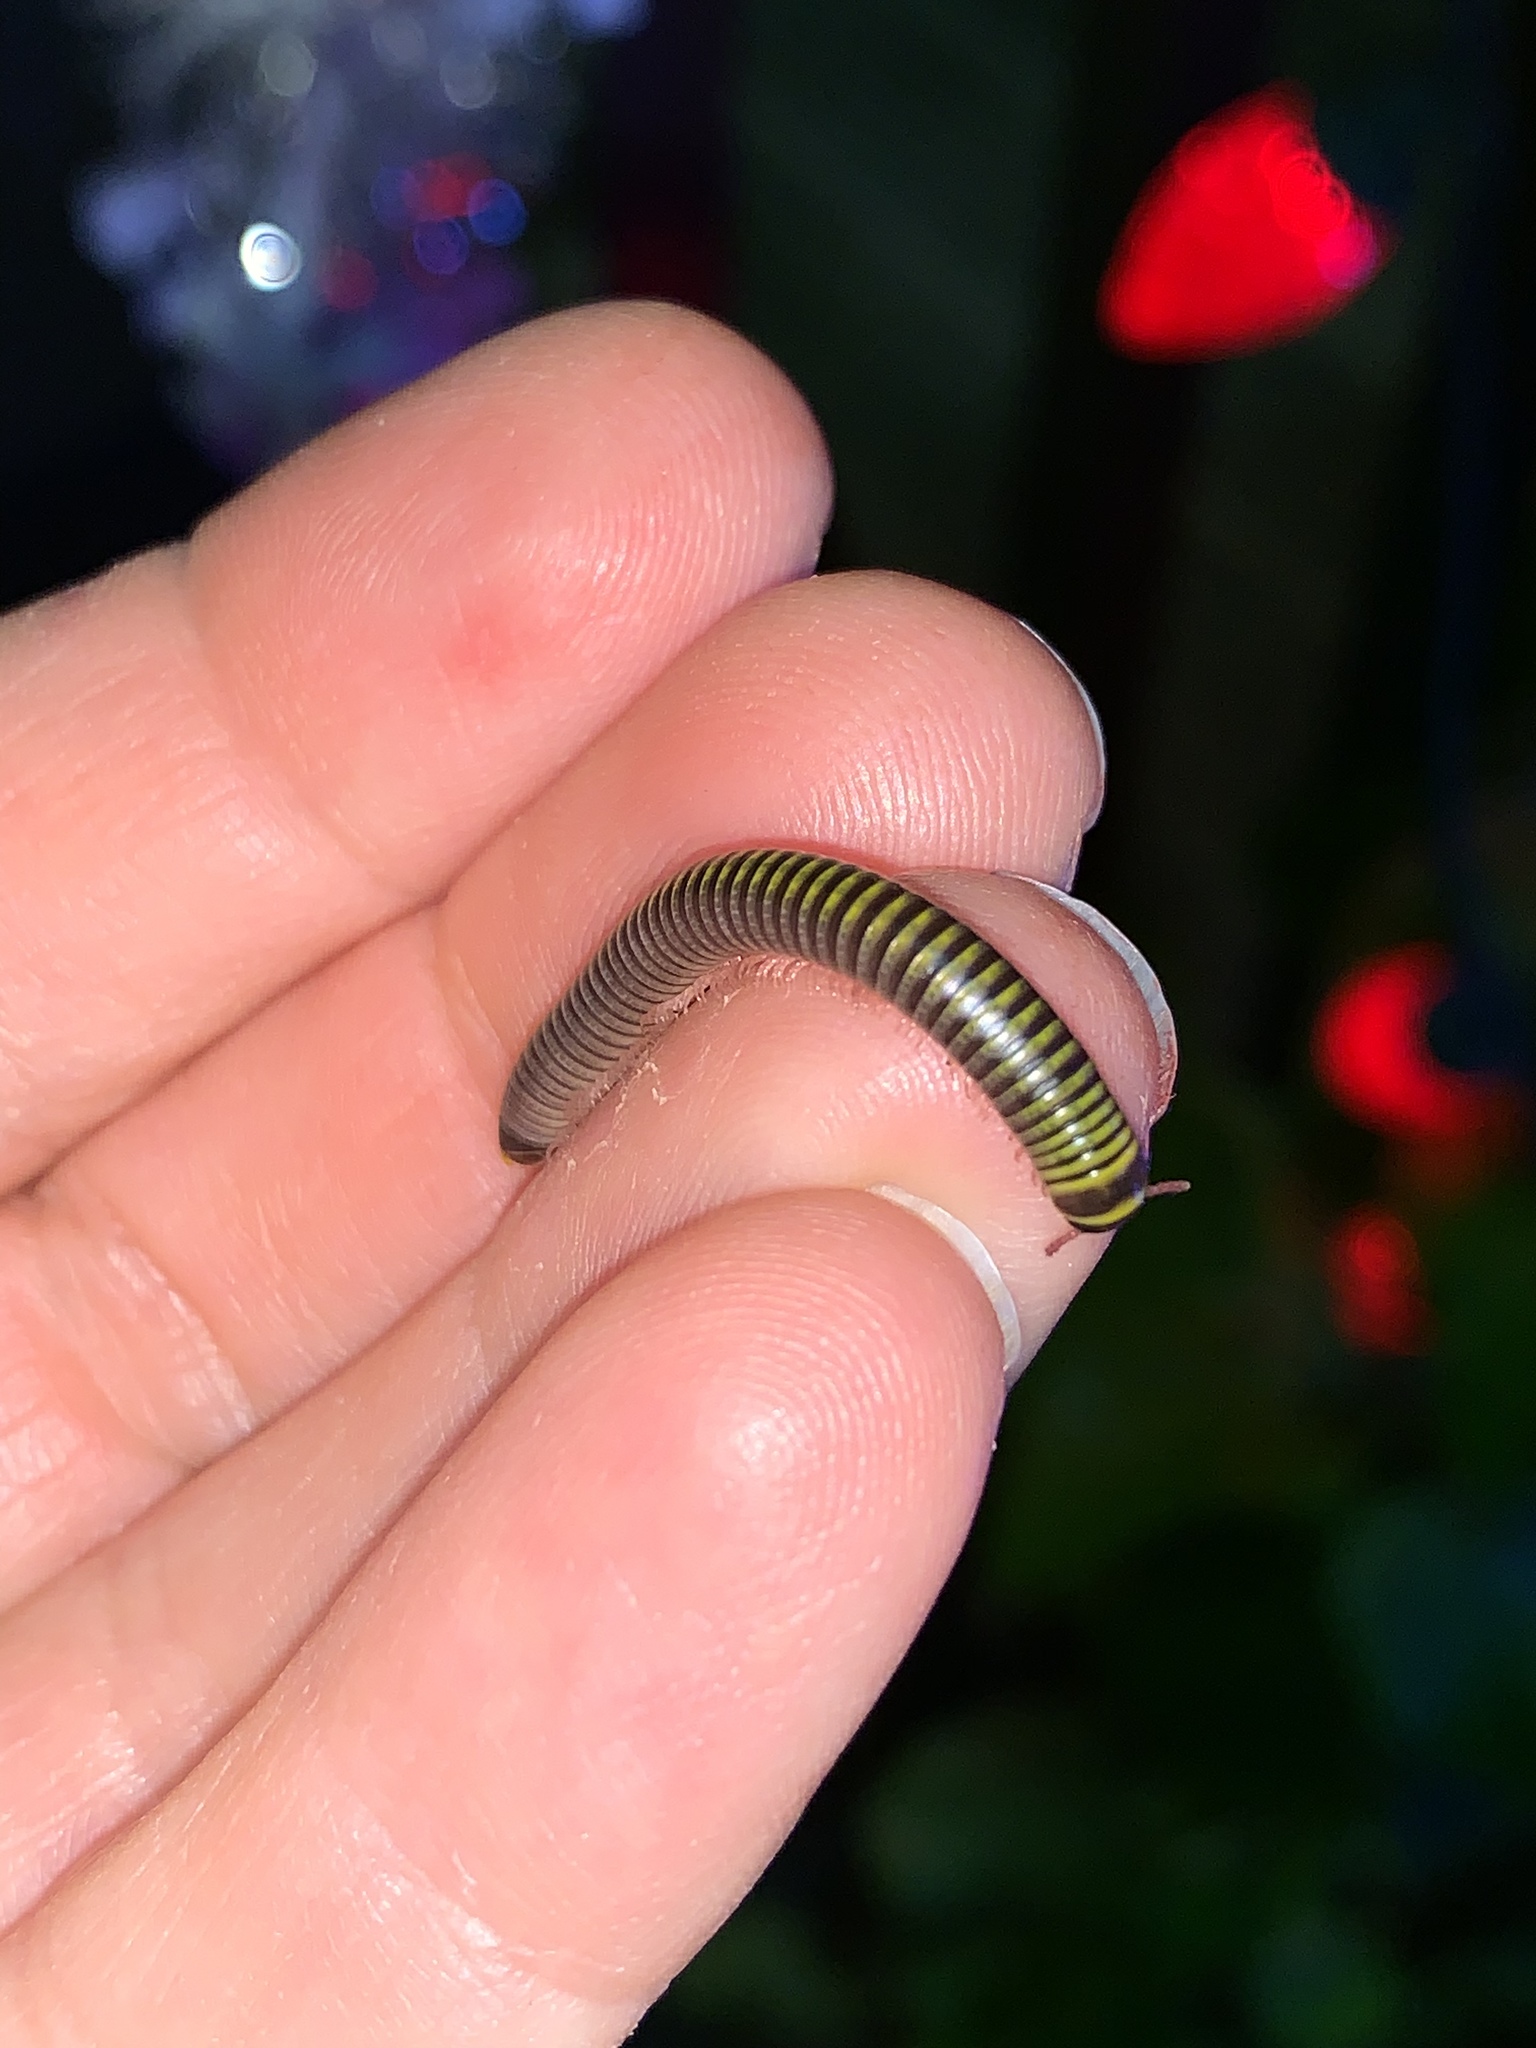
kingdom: Animalia
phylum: Arthropoda
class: Diplopoda
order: Spirobolida
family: Rhinocricidae
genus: Anadenobolus
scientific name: Anadenobolus monilicornis
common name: Caribbean millipede
